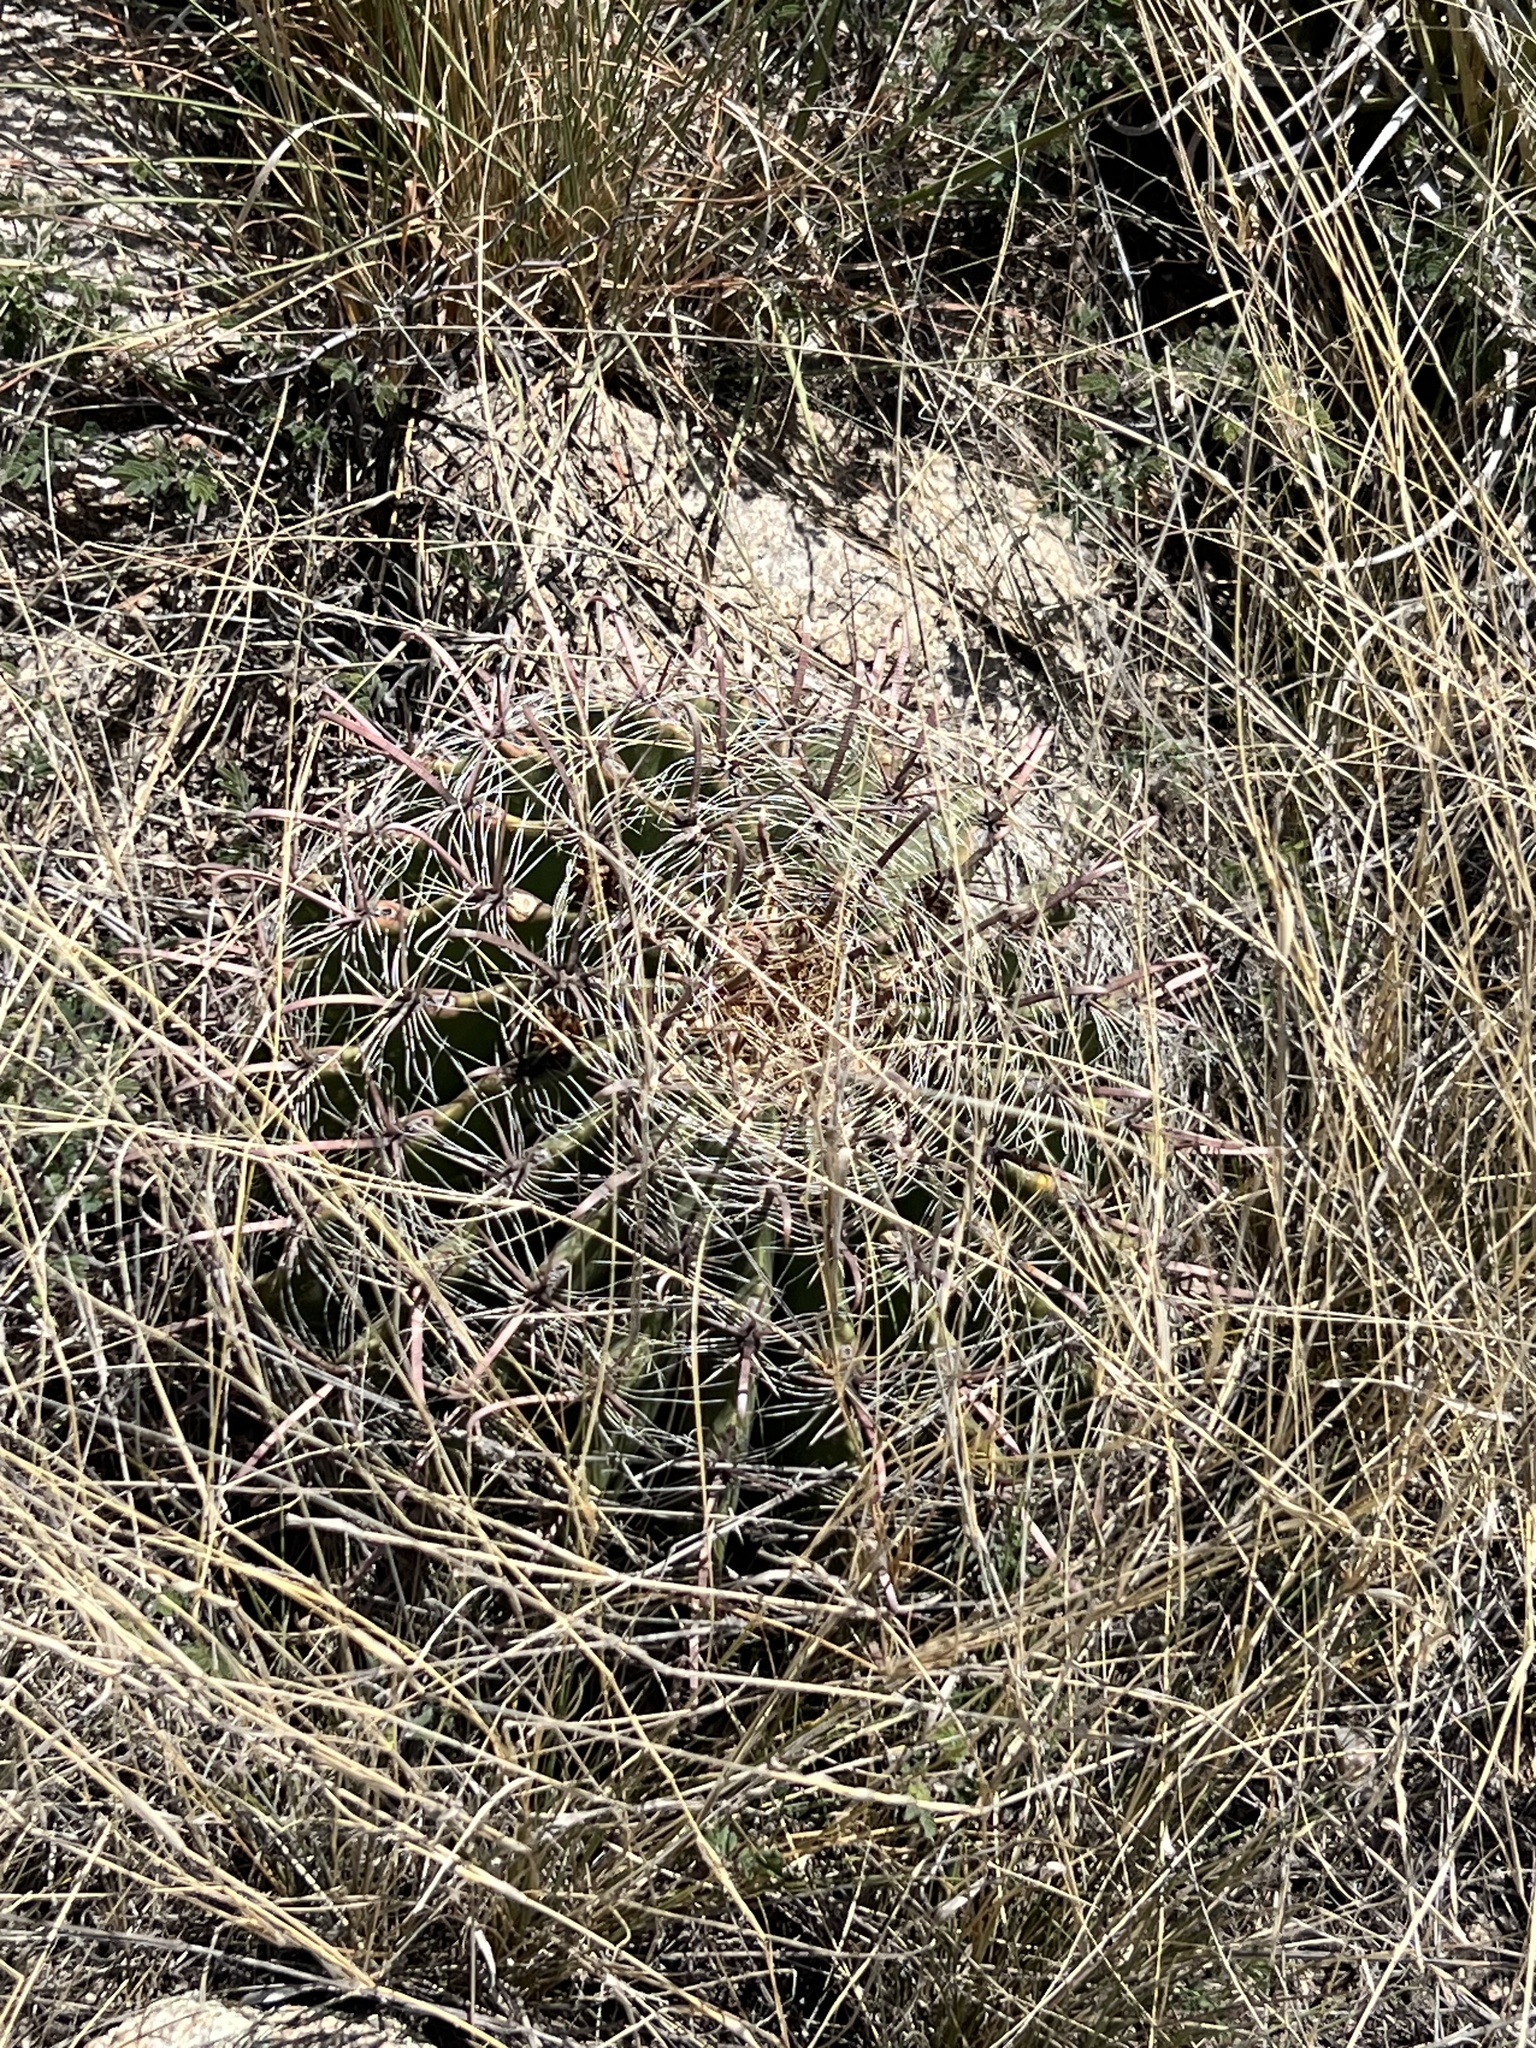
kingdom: Plantae
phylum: Tracheophyta
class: Magnoliopsida
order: Caryophyllales
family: Cactaceae
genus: Ferocactus
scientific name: Ferocactus wislizeni
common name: Candy barrel cactus
